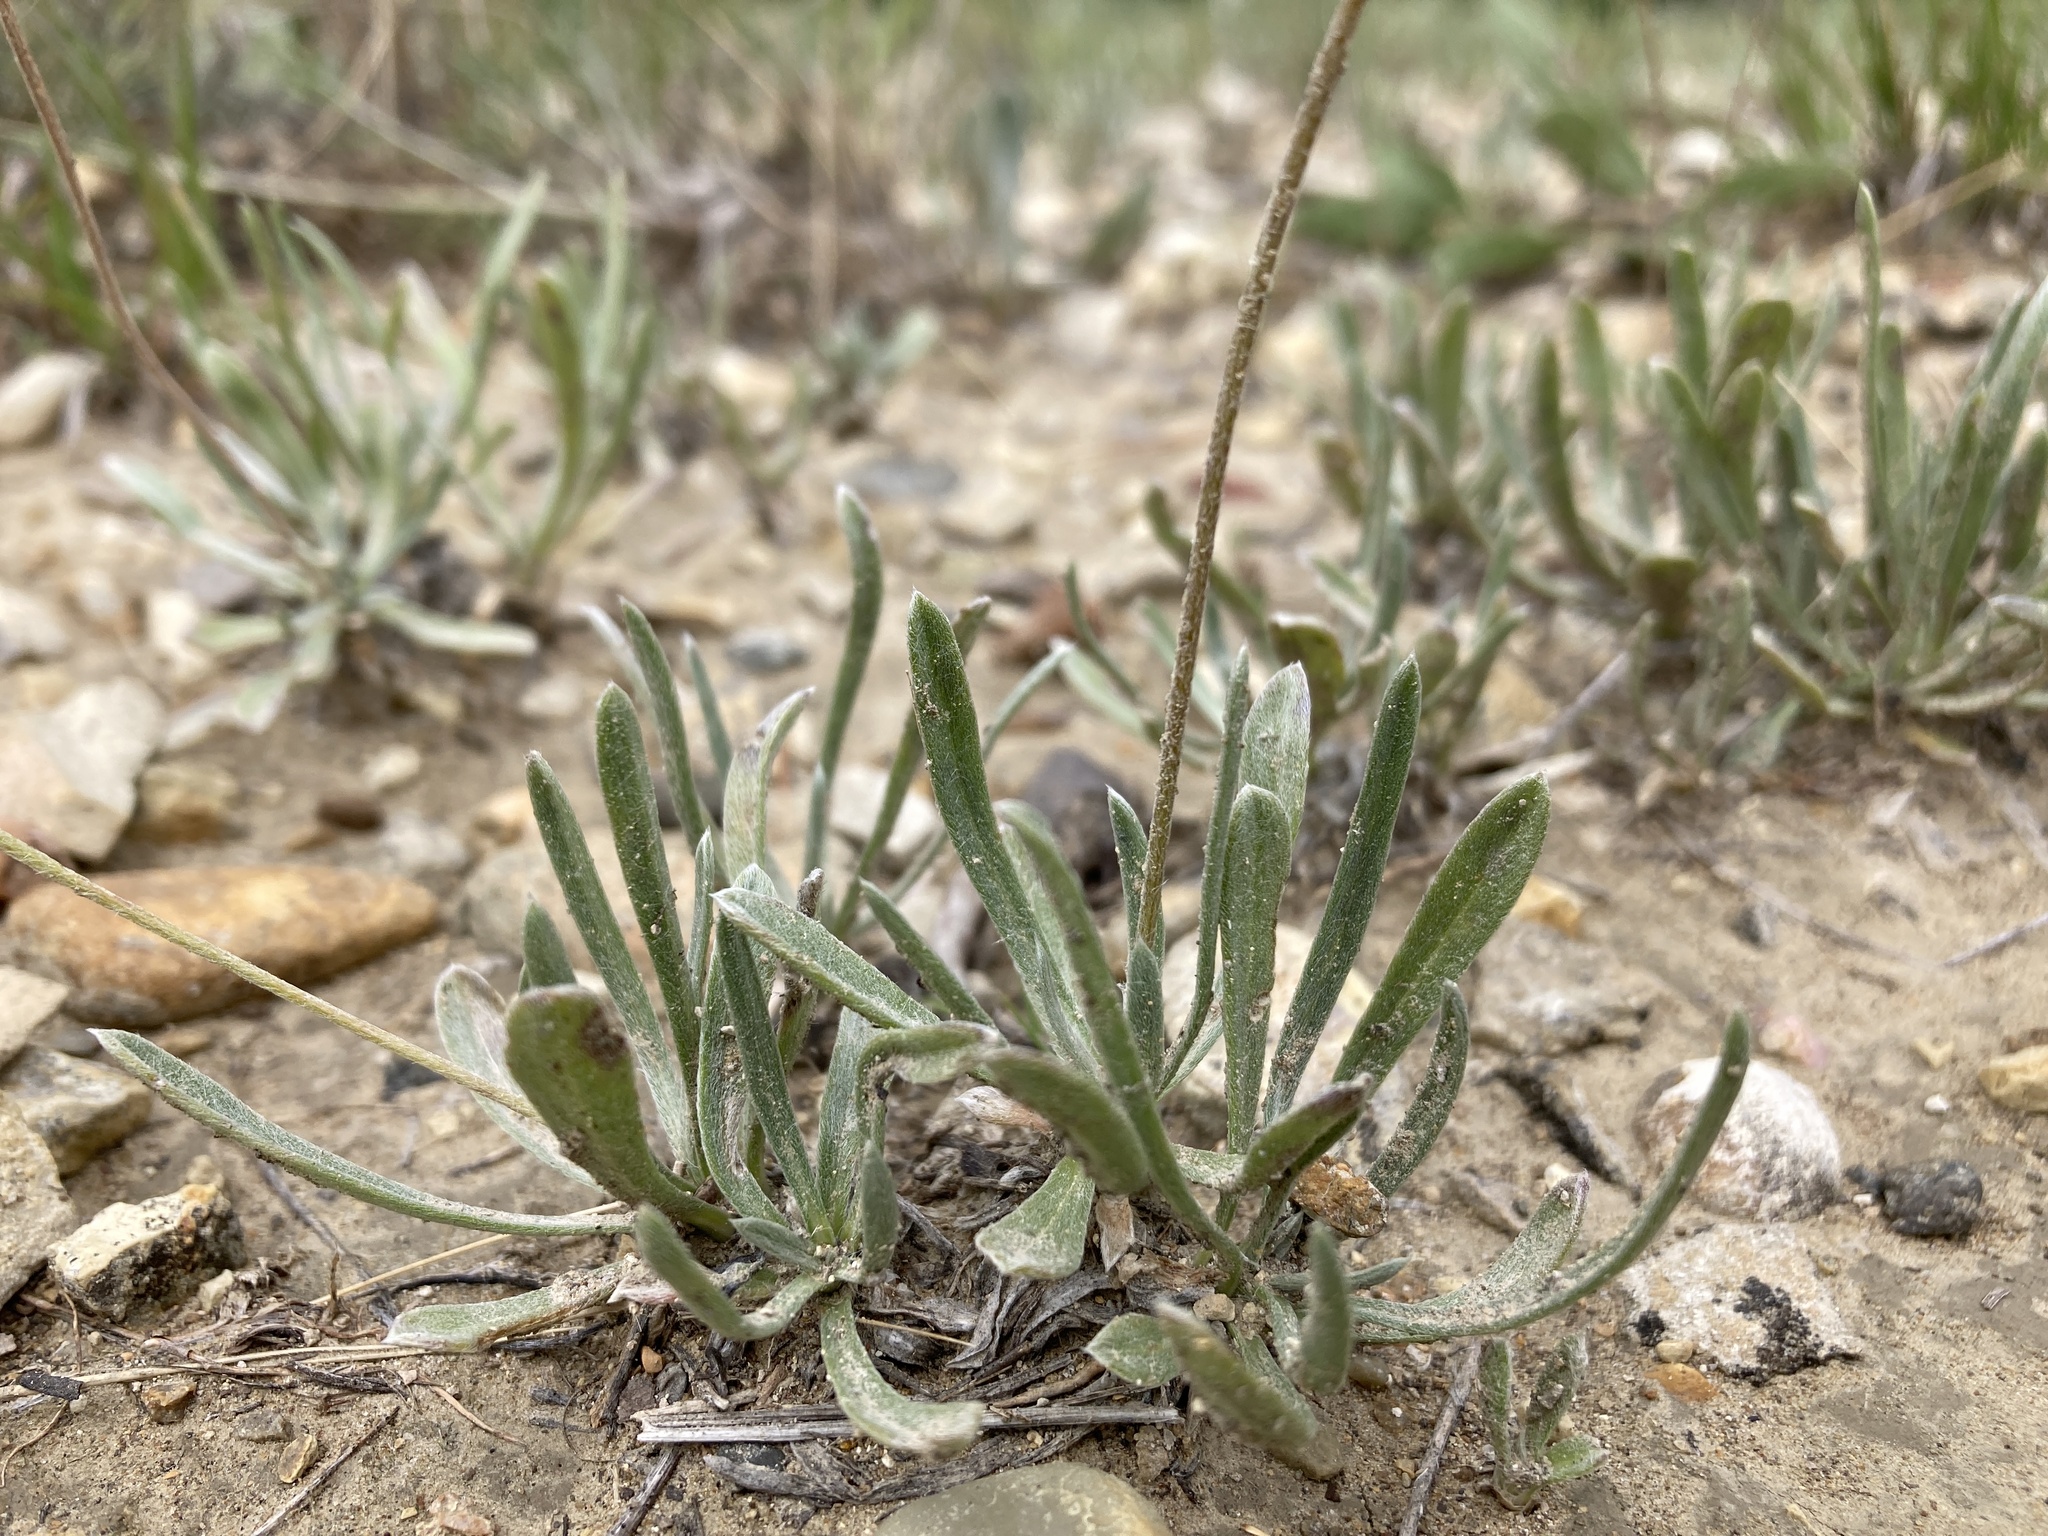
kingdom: Plantae
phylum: Tracheophyta
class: Magnoliopsida
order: Asterales
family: Asteraceae
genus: Tetraneuris
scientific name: Tetraneuris acaulis
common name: Butte marigold
